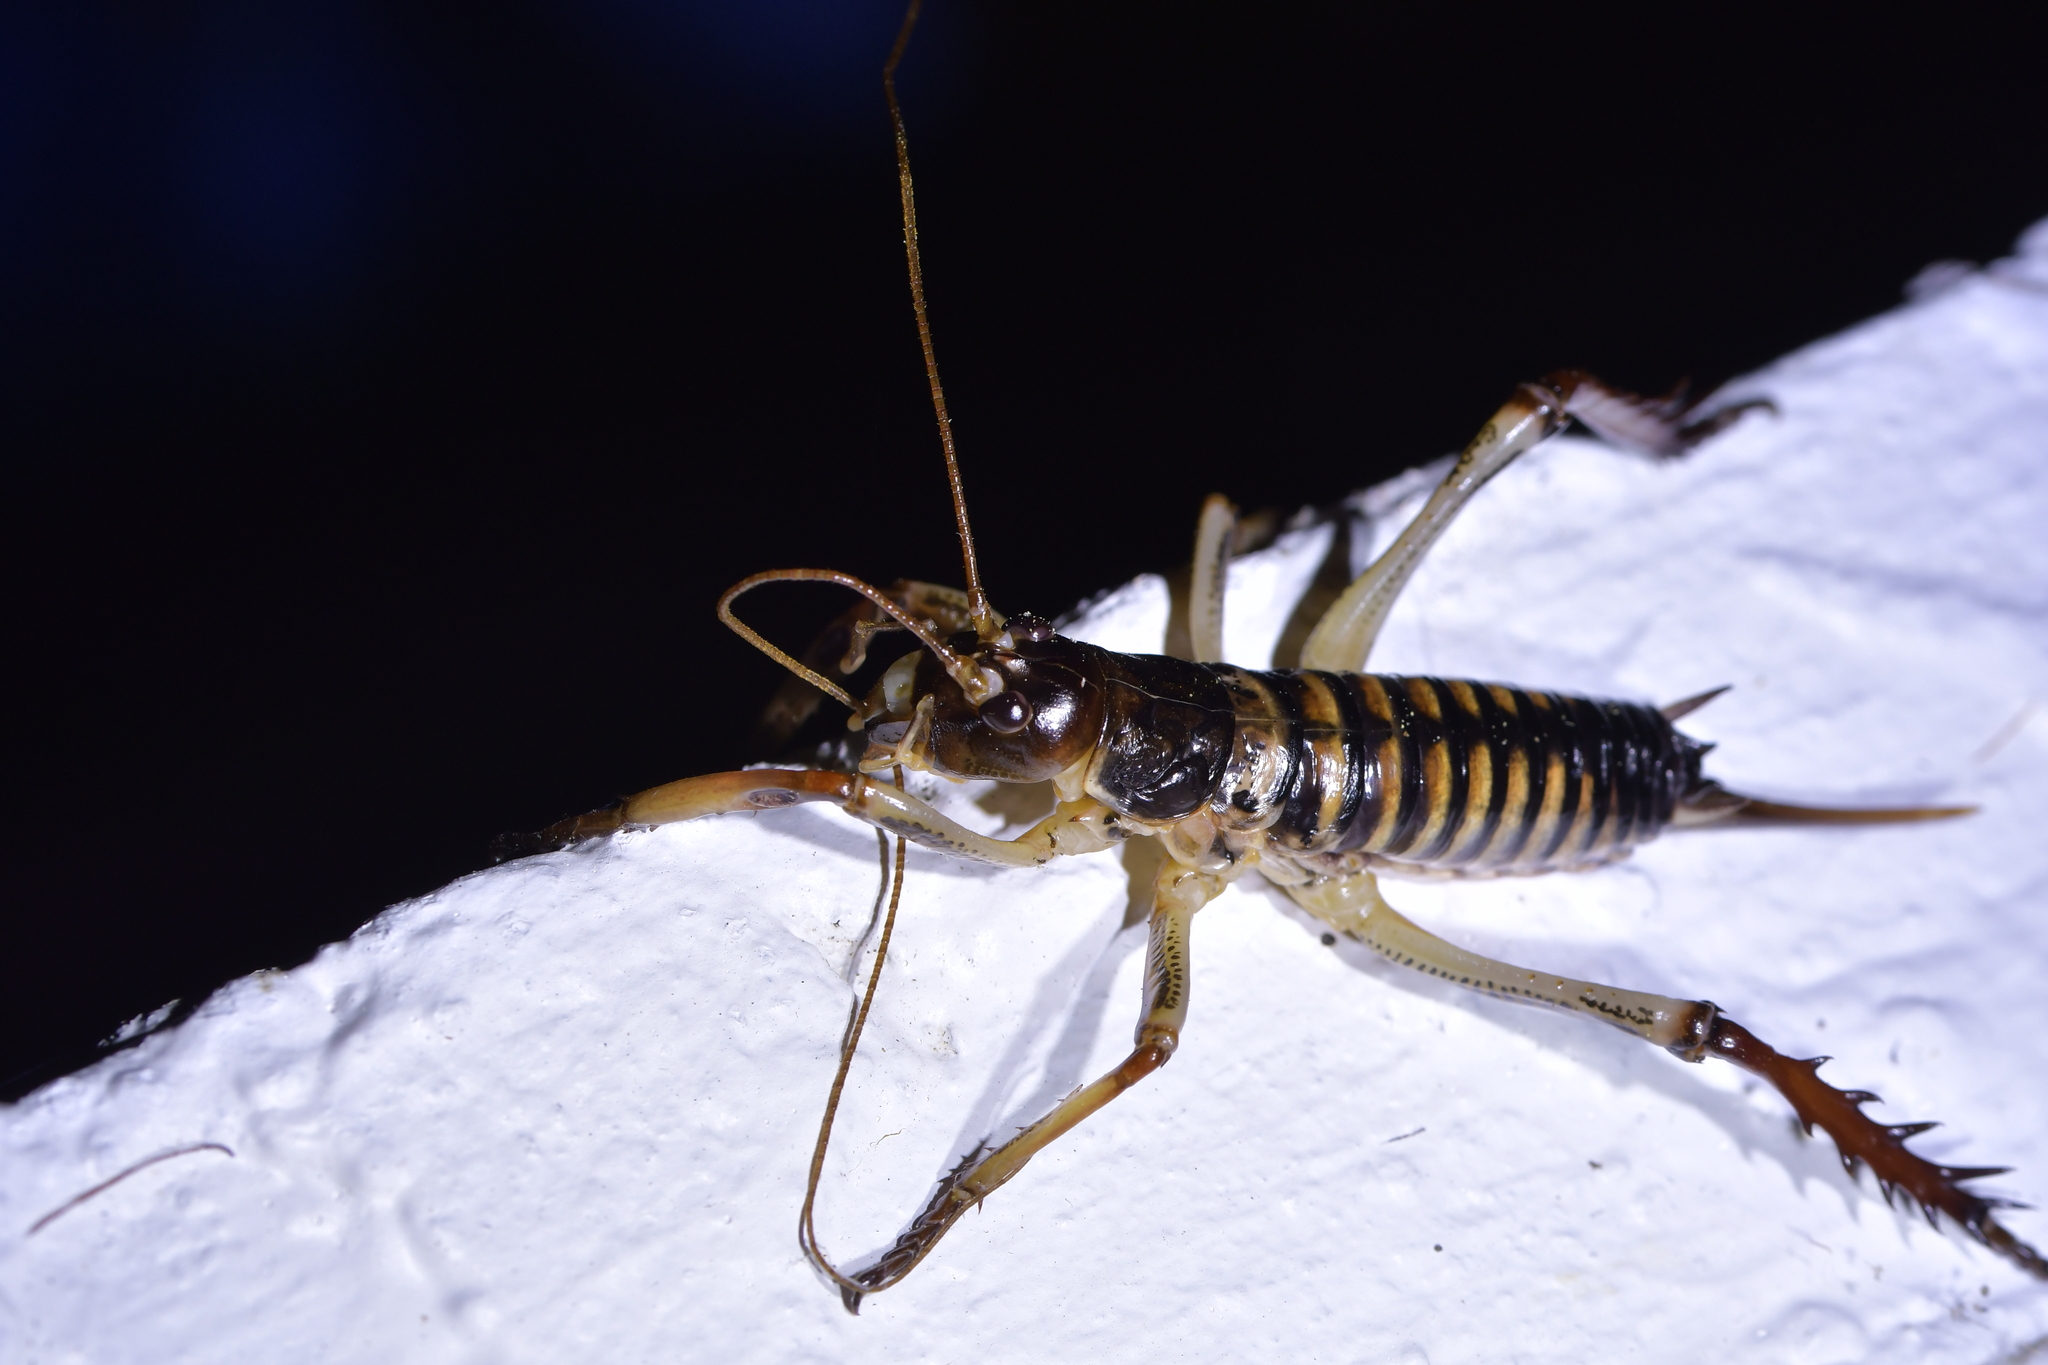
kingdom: Animalia
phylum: Arthropoda
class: Insecta
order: Orthoptera
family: Anostostomatidae
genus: Hemideina
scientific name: Hemideina crassidens
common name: Wellington tree weta
